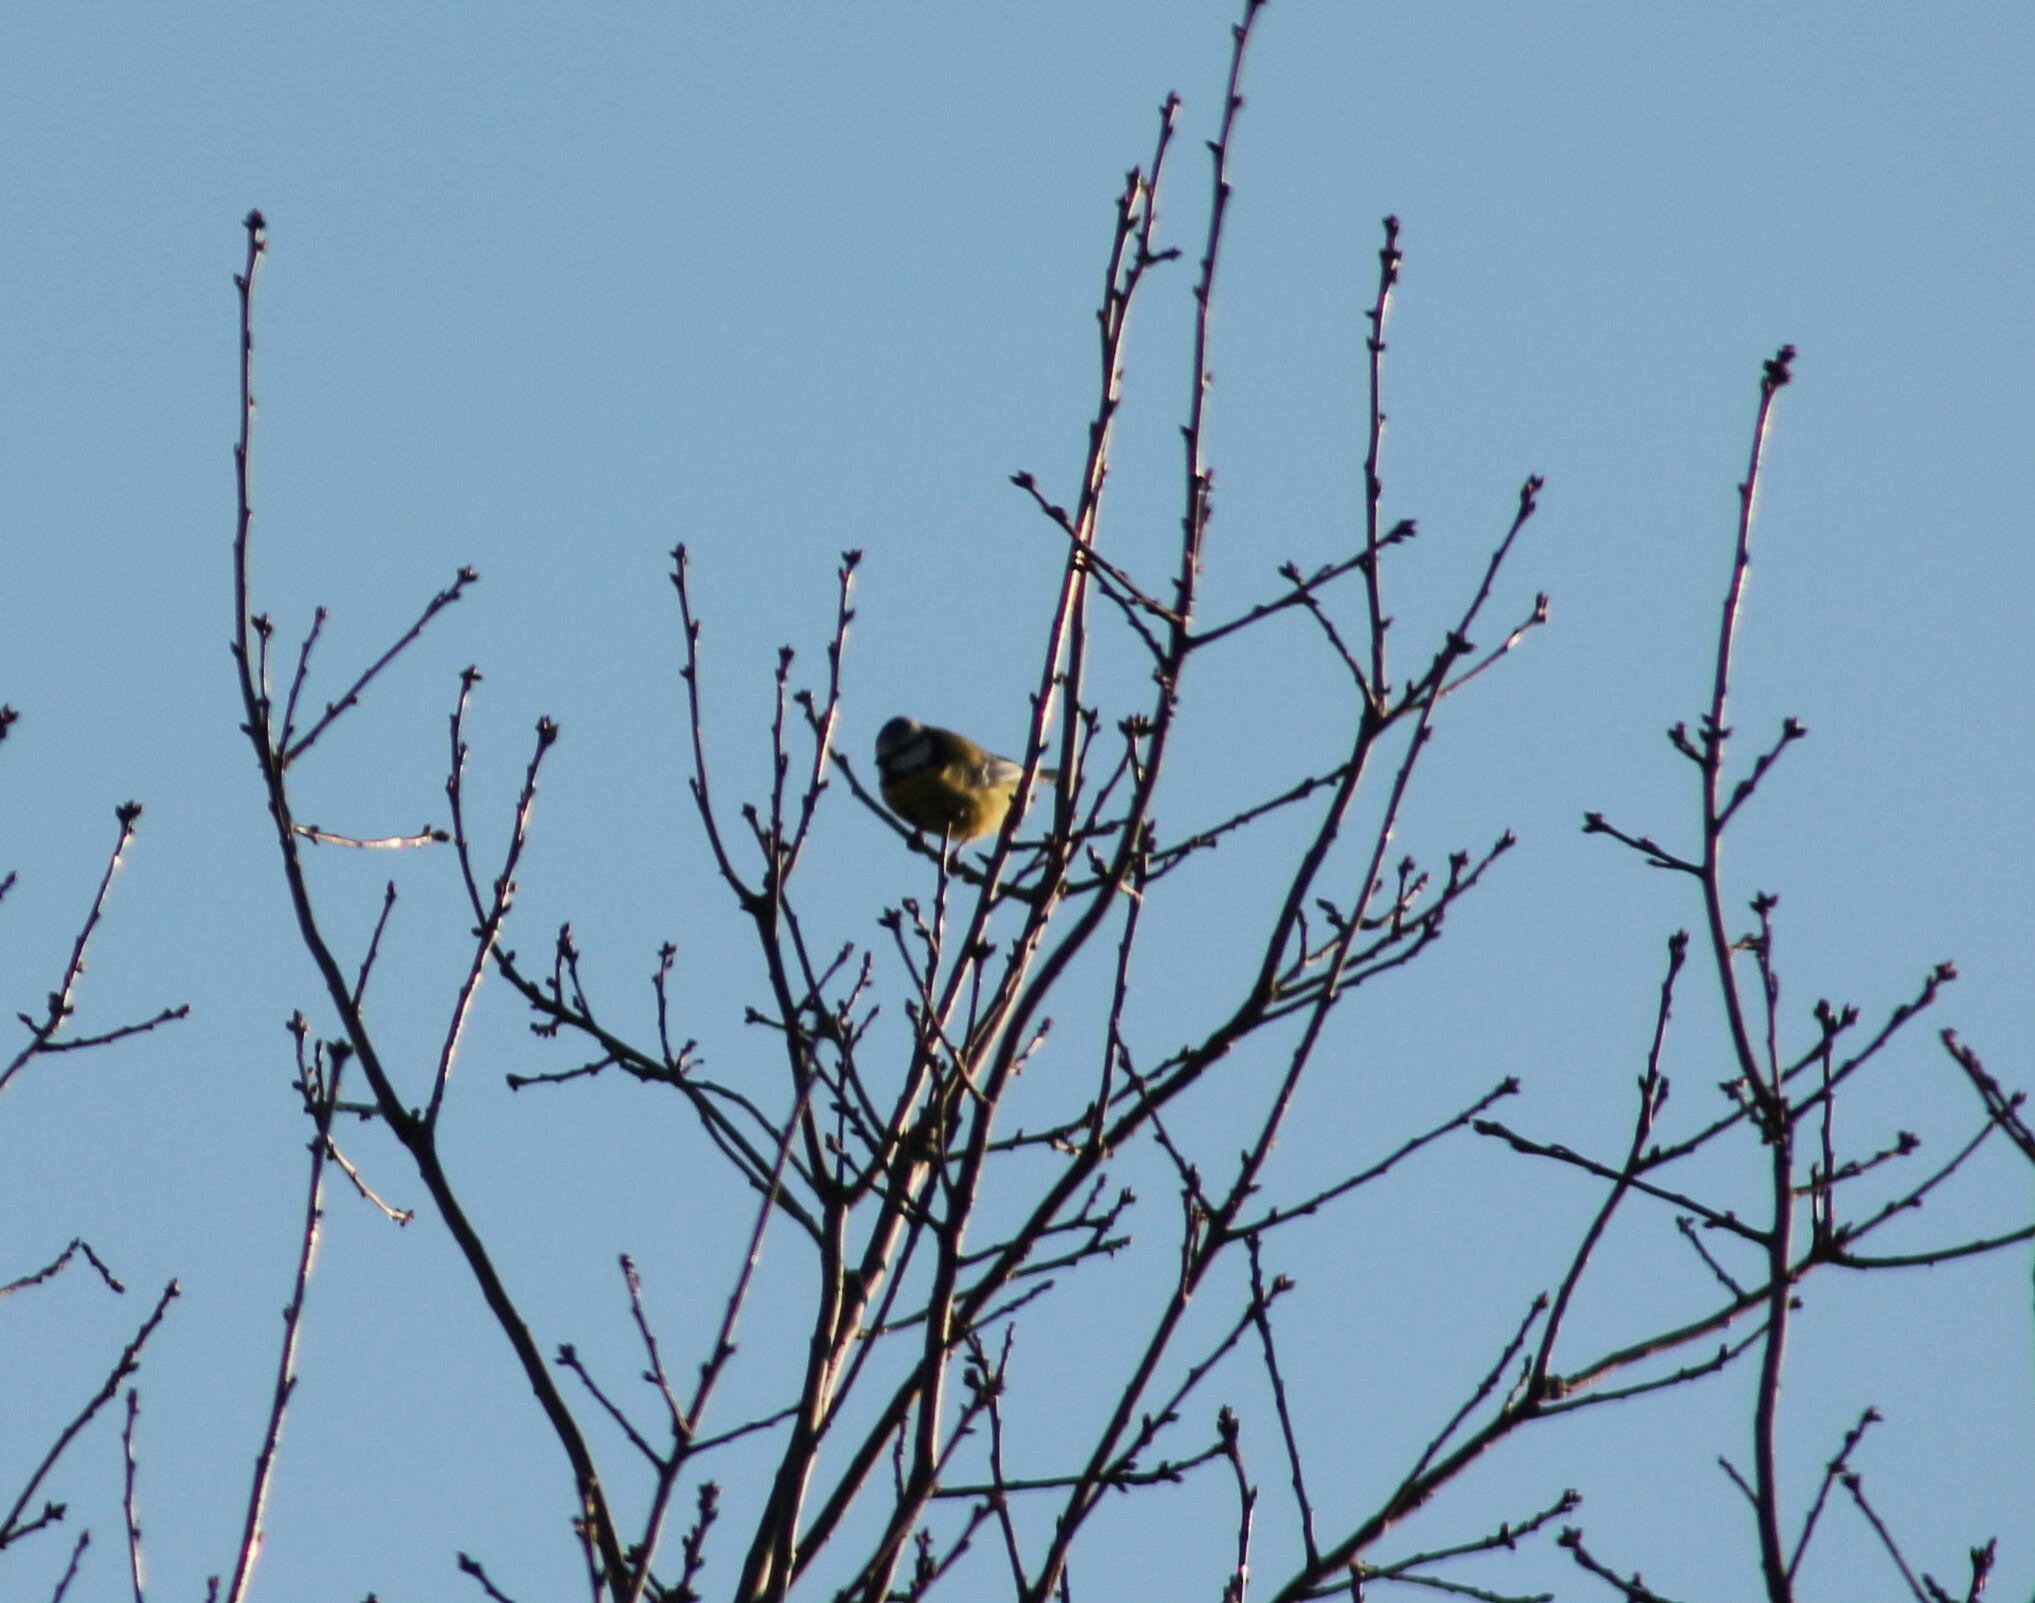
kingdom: Animalia
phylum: Chordata
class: Aves
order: Passeriformes
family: Paridae
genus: Cyanistes
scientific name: Cyanistes caeruleus
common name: Eurasian blue tit
